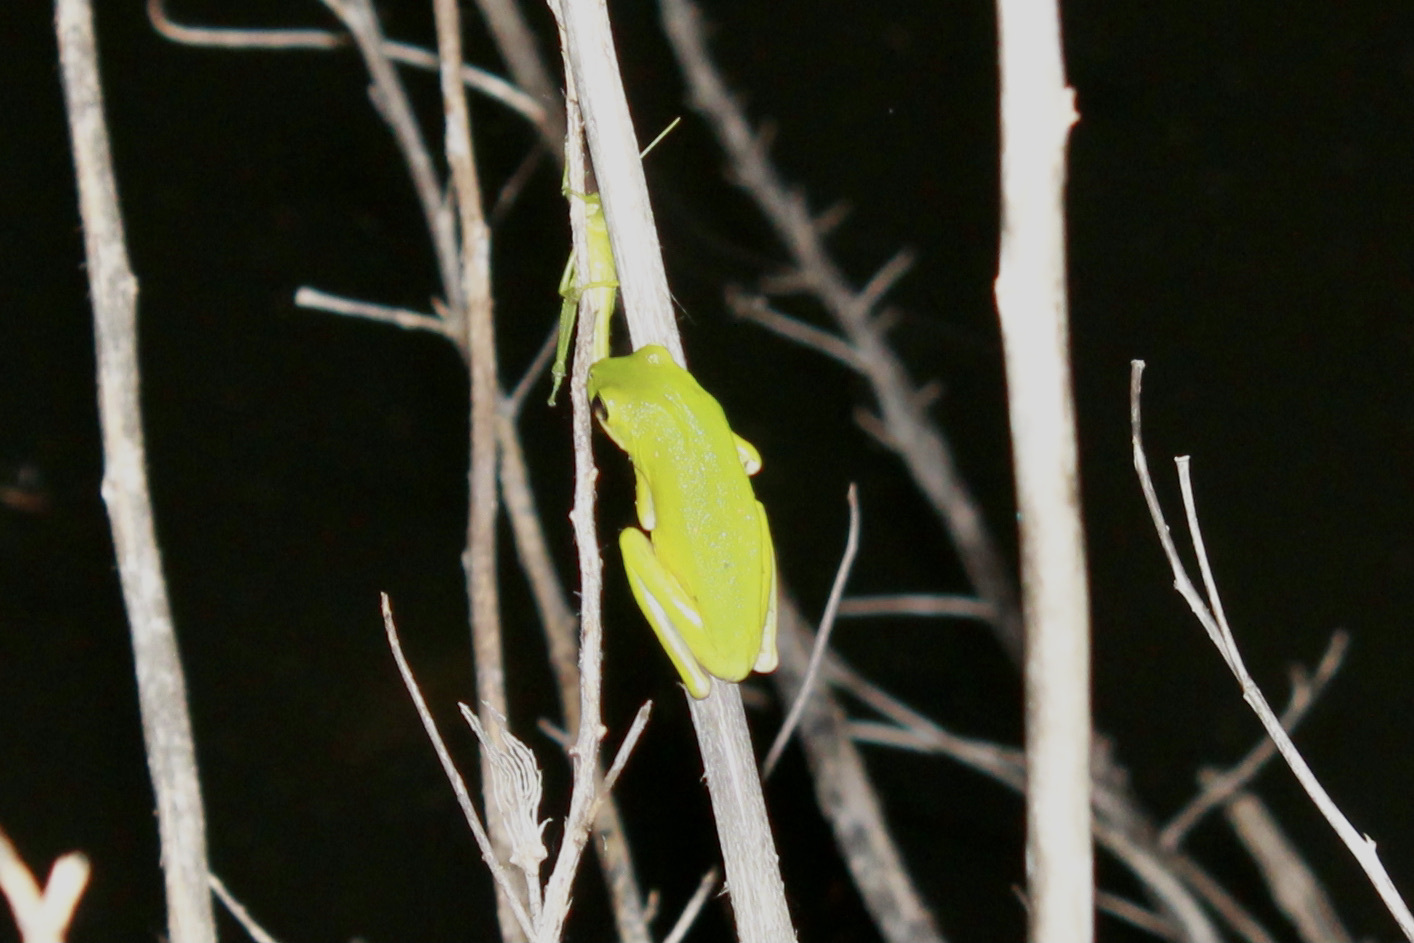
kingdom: Animalia
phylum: Chordata
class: Amphibia
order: Anura
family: Hylidae
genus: Dryophytes
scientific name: Dryophytes cinereus
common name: Green treefrog
